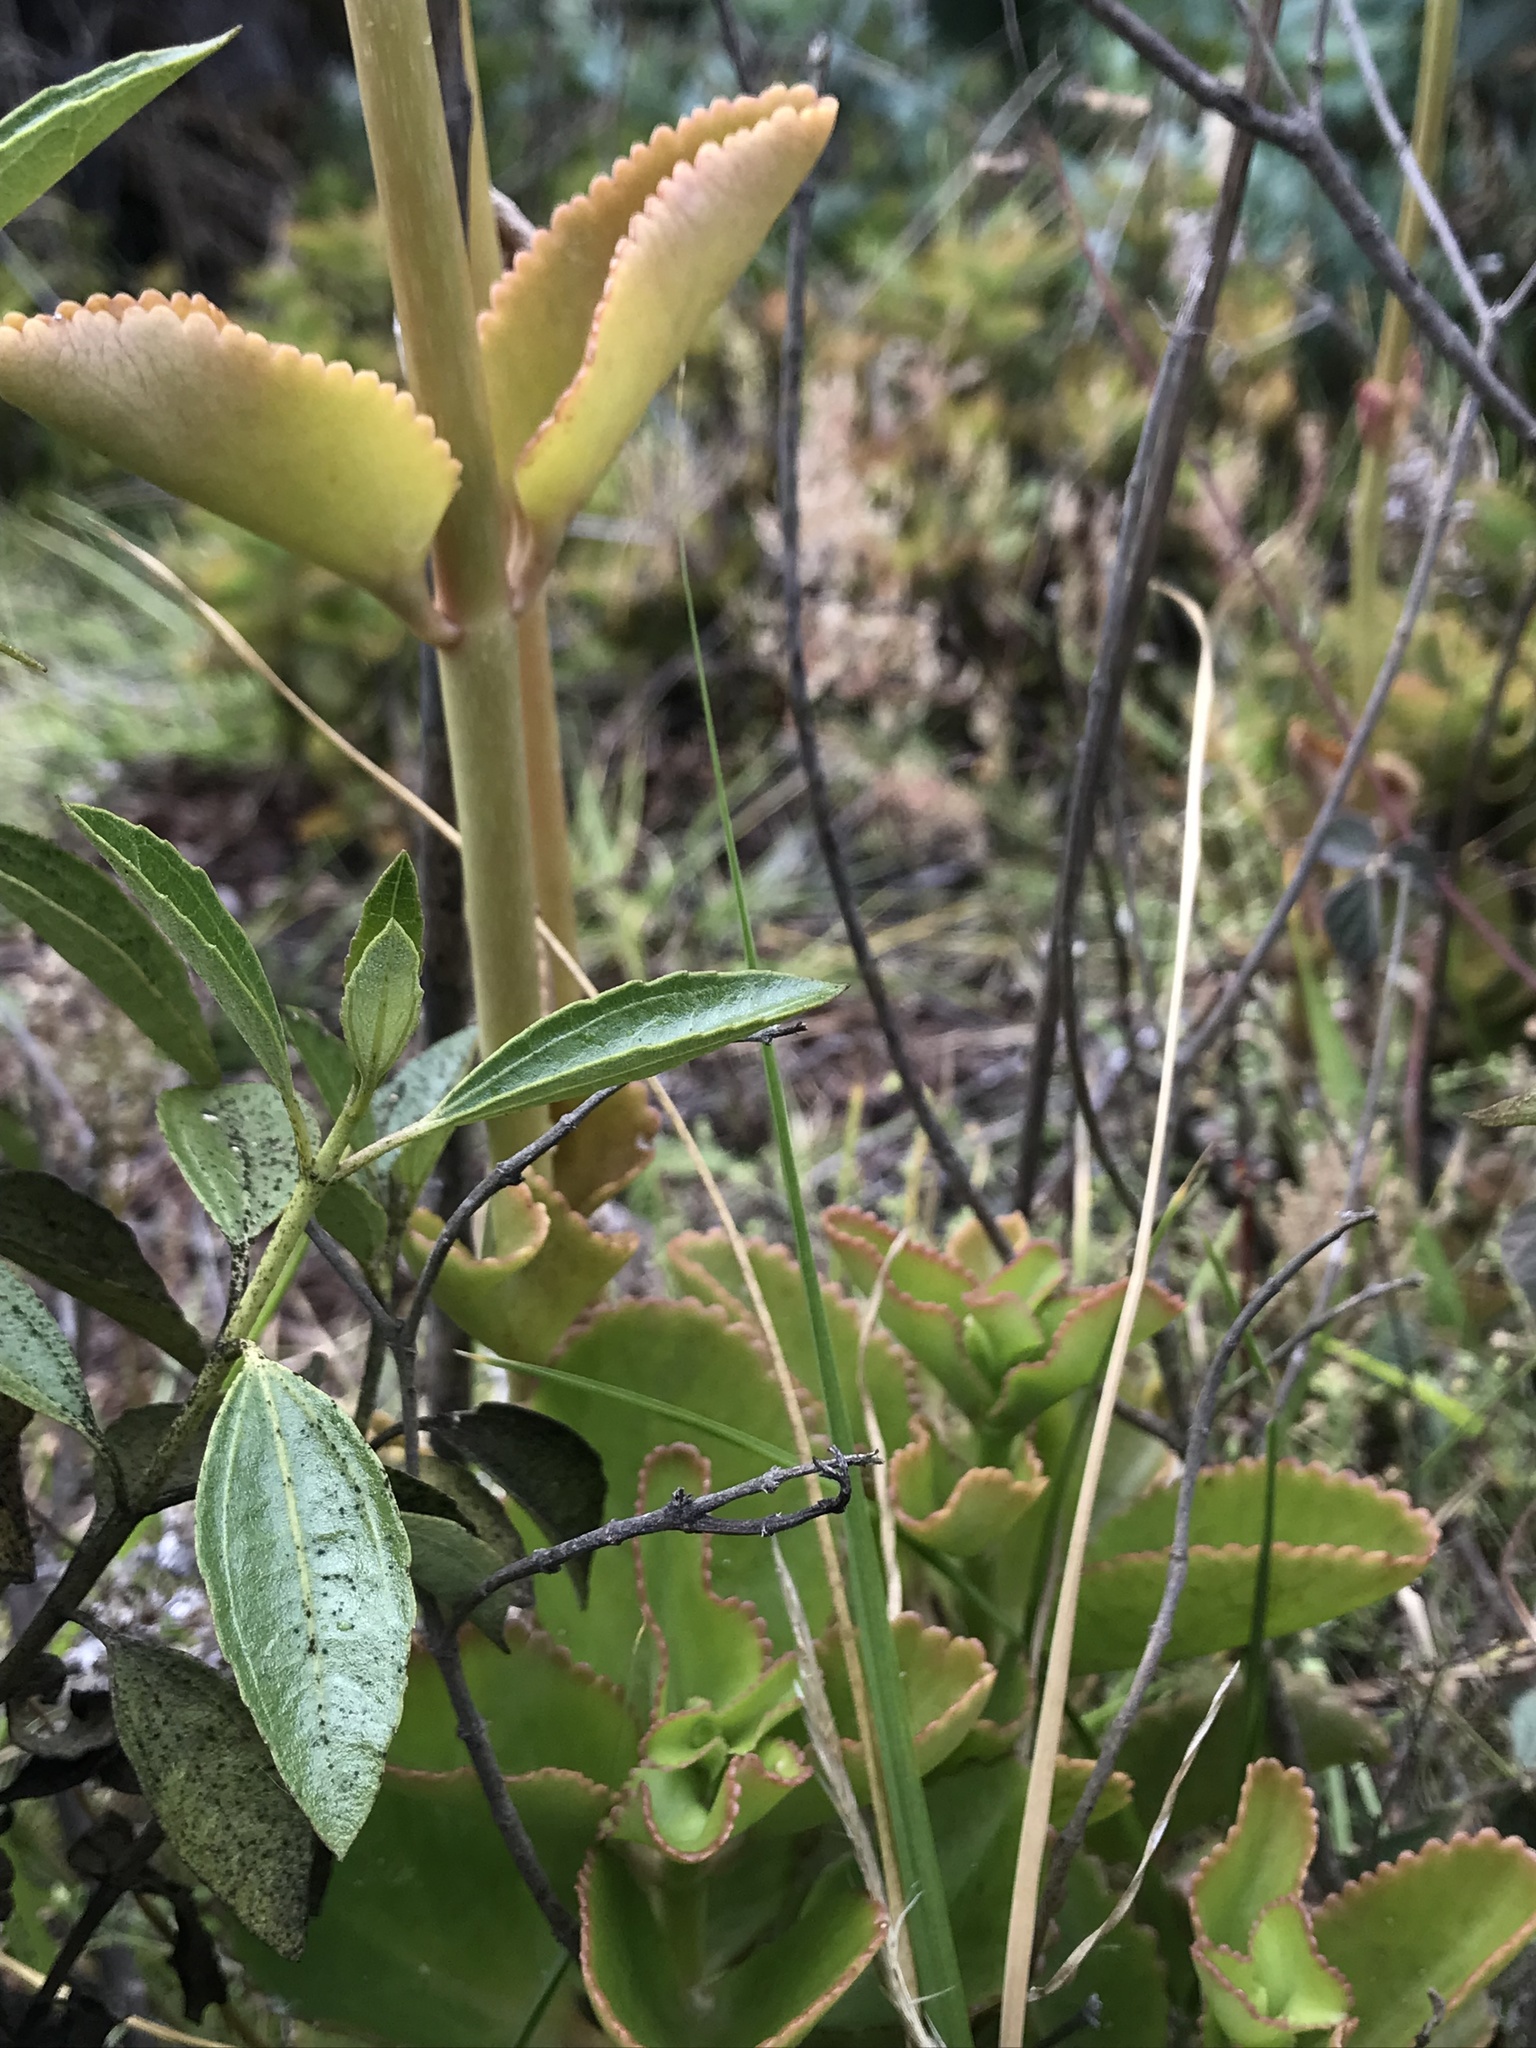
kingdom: Plantae
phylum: Tracheophyta
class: Magnoliopsida
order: Saxifragales
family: Crassulaceae
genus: Kalanchoe
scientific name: Kalanchoe densiflora
